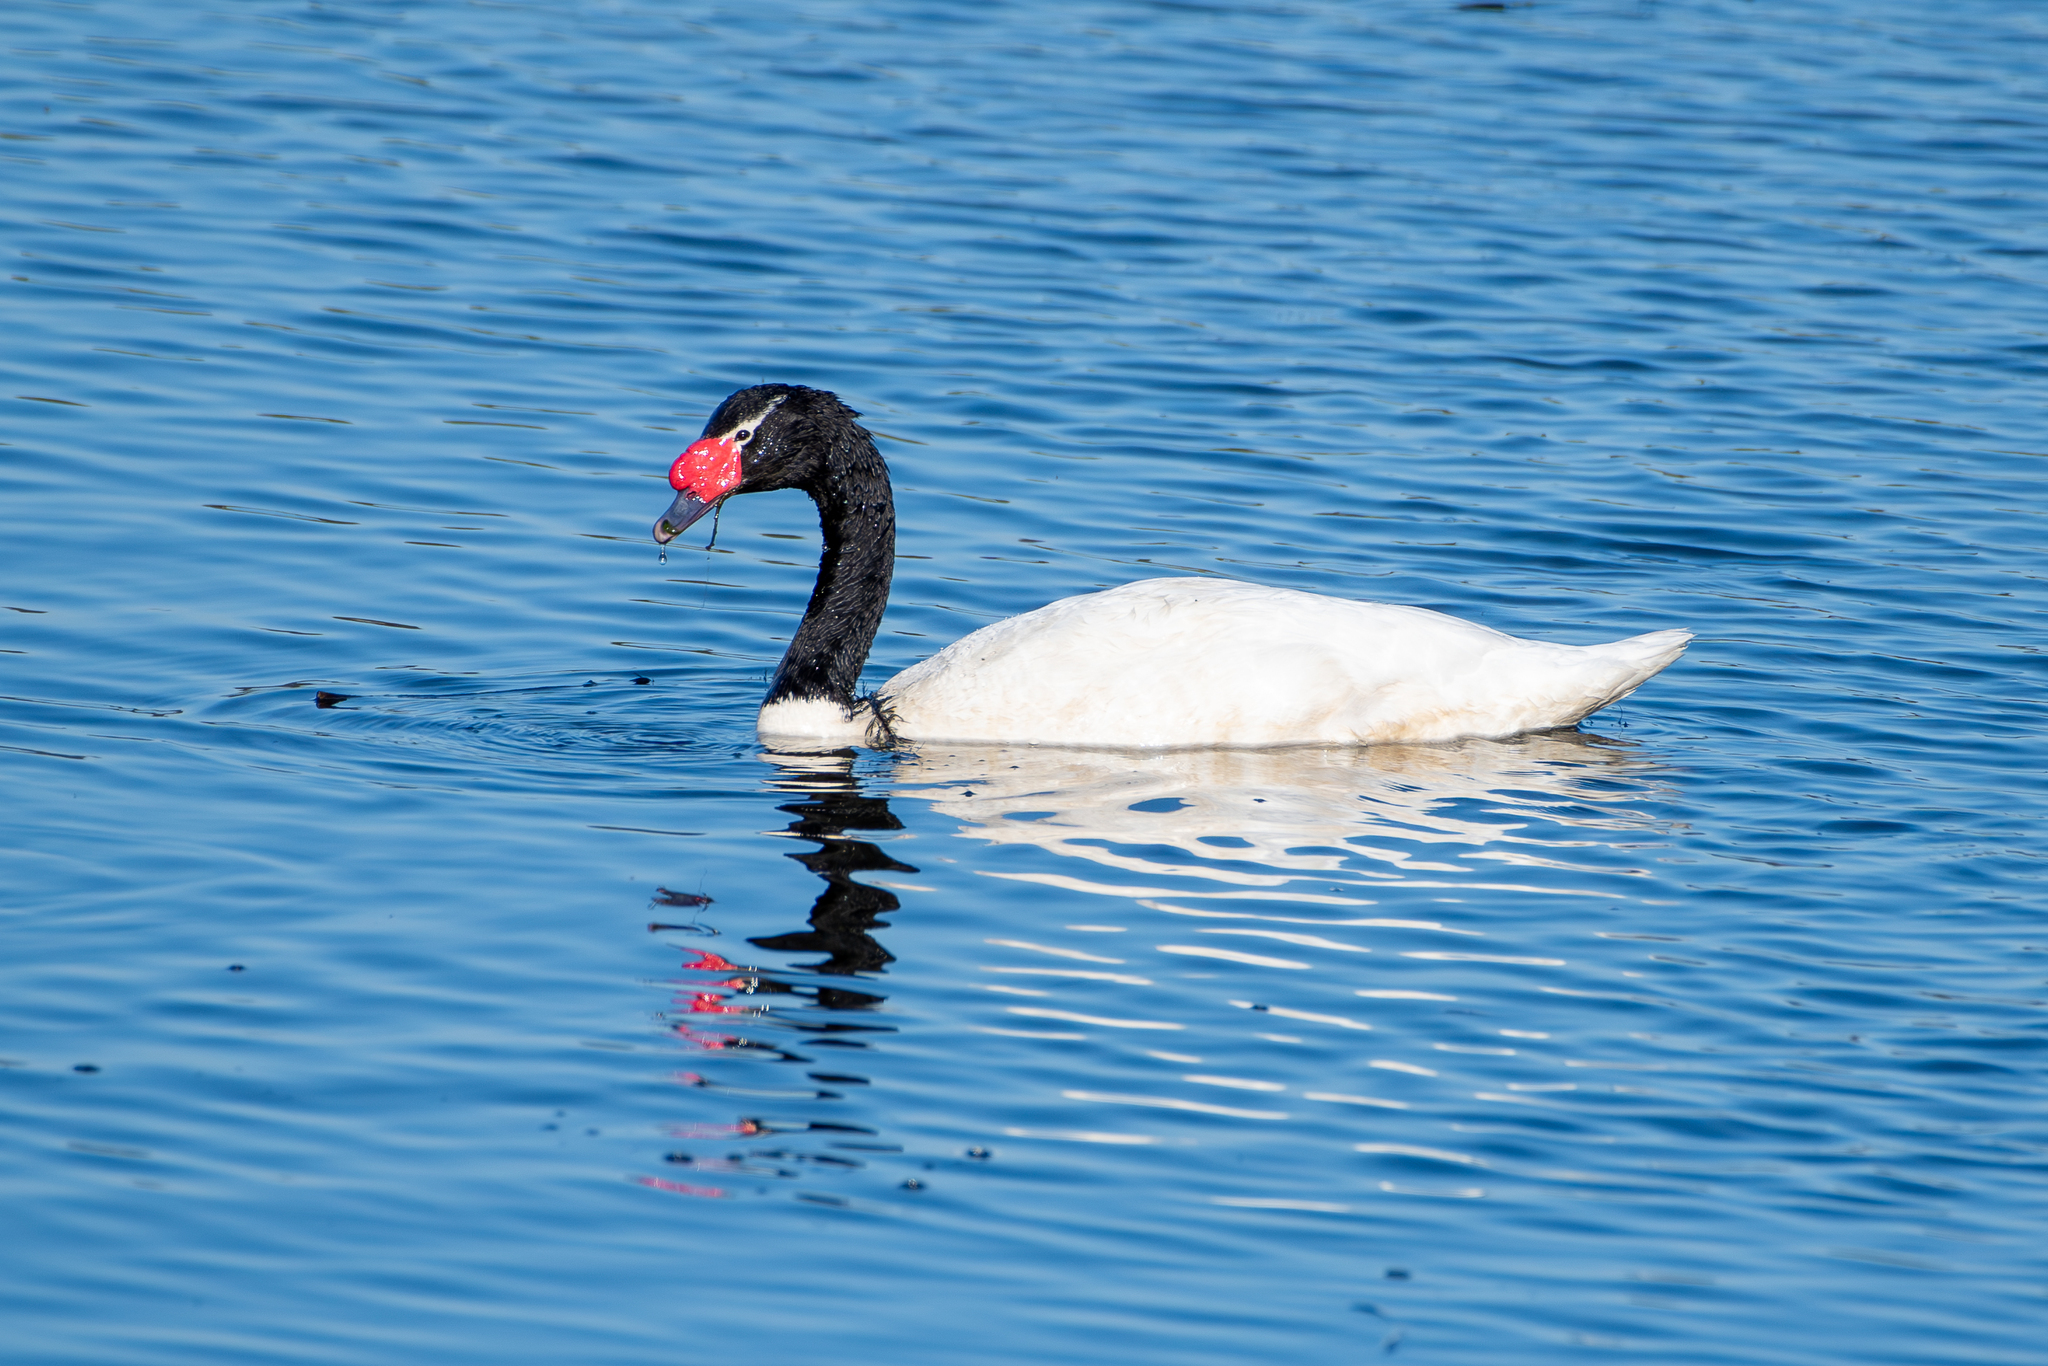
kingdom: Animalia
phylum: Chordata
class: Aves
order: Anseriformes
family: Anatidae
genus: Cygnus
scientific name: Cygnus melancoryphus
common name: Black-necked swan
